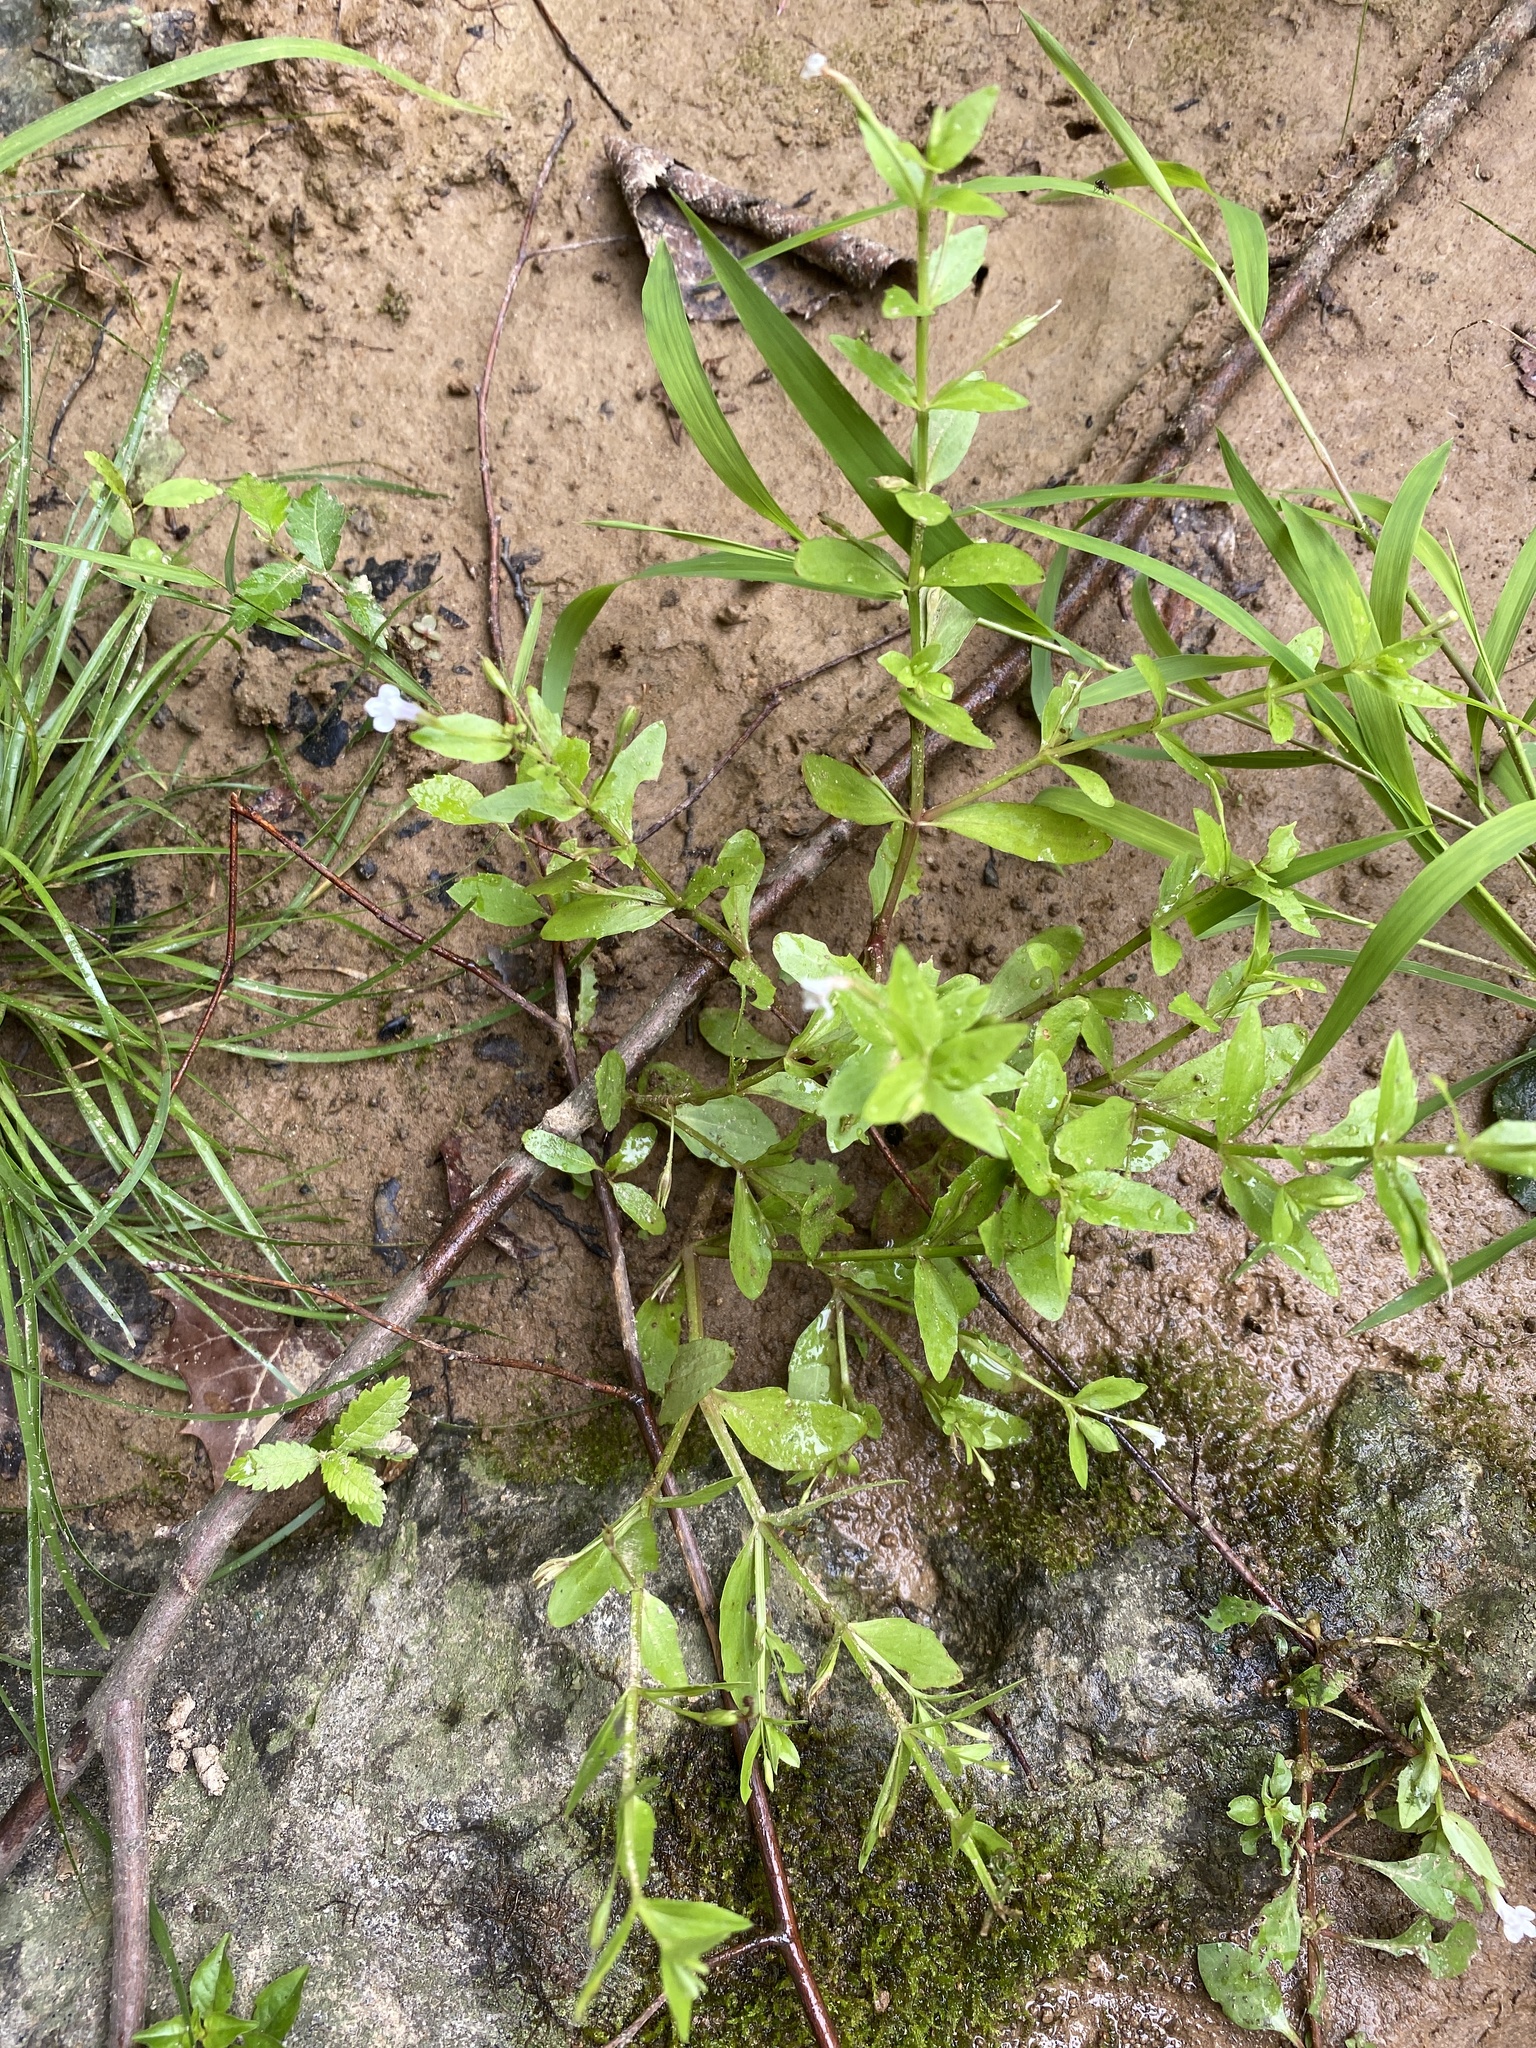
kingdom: Plantae
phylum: Tracheophyta
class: Magnoliopsida
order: Lamiales
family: Linderniaceae
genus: Lindernia
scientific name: Lindernia dubia
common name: Annual false pimpernel
